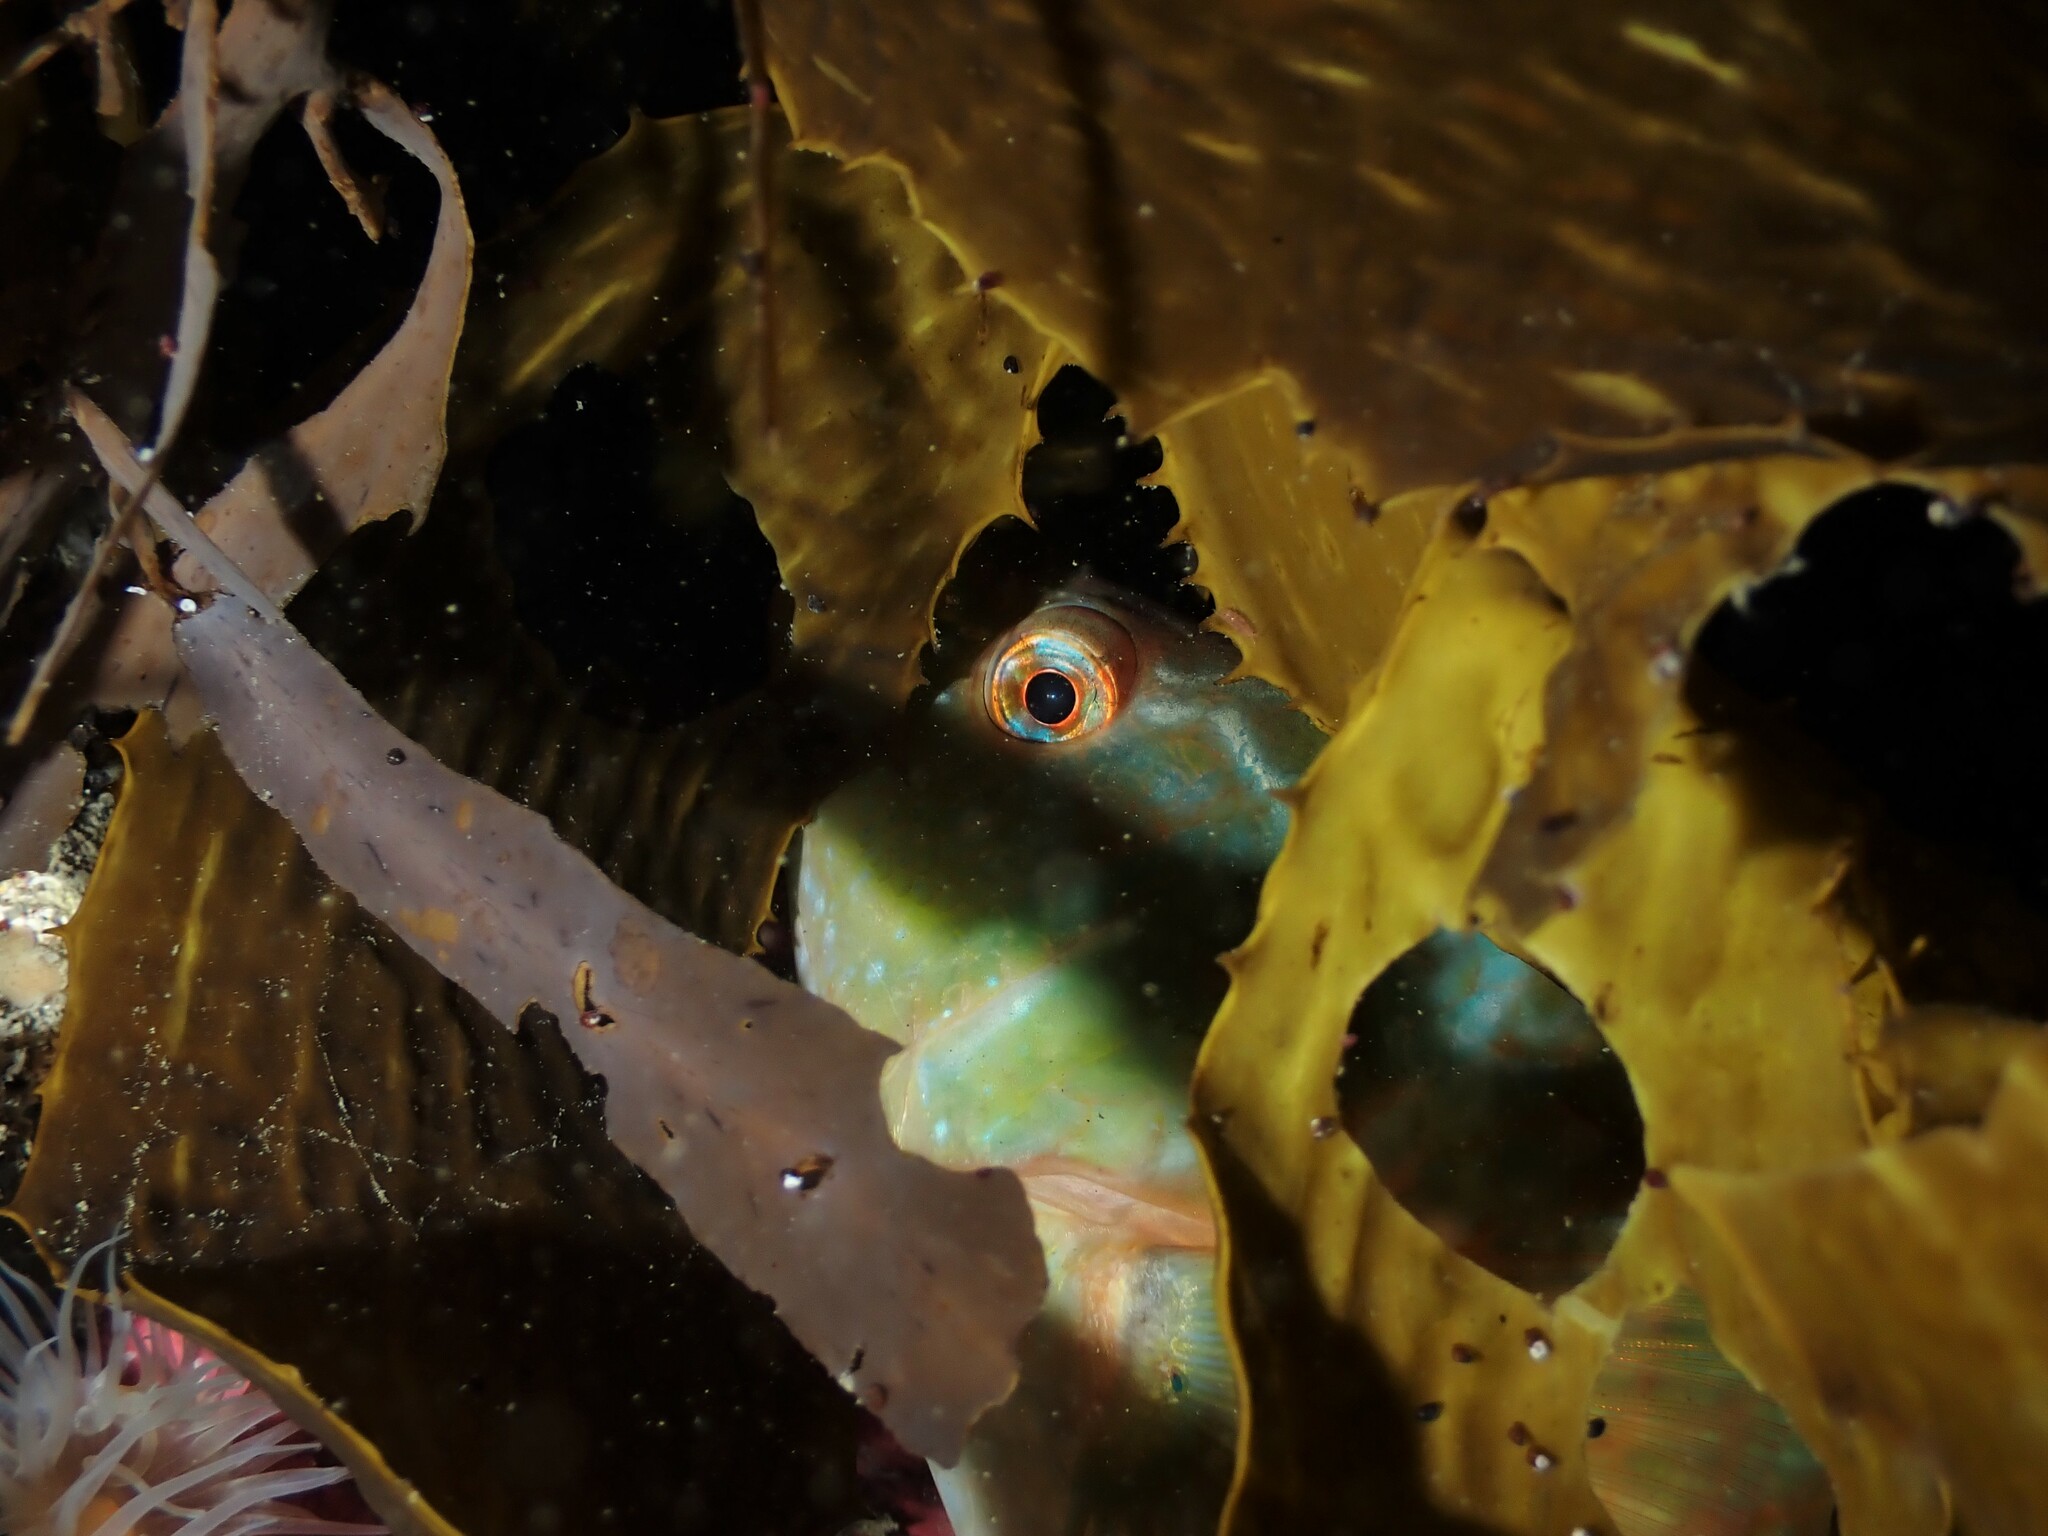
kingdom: Animalia
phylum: Chordata
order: Perciformes
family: Labridae
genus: Notolabrus
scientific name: Notolabrus fucicola
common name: Banded parrotfish
